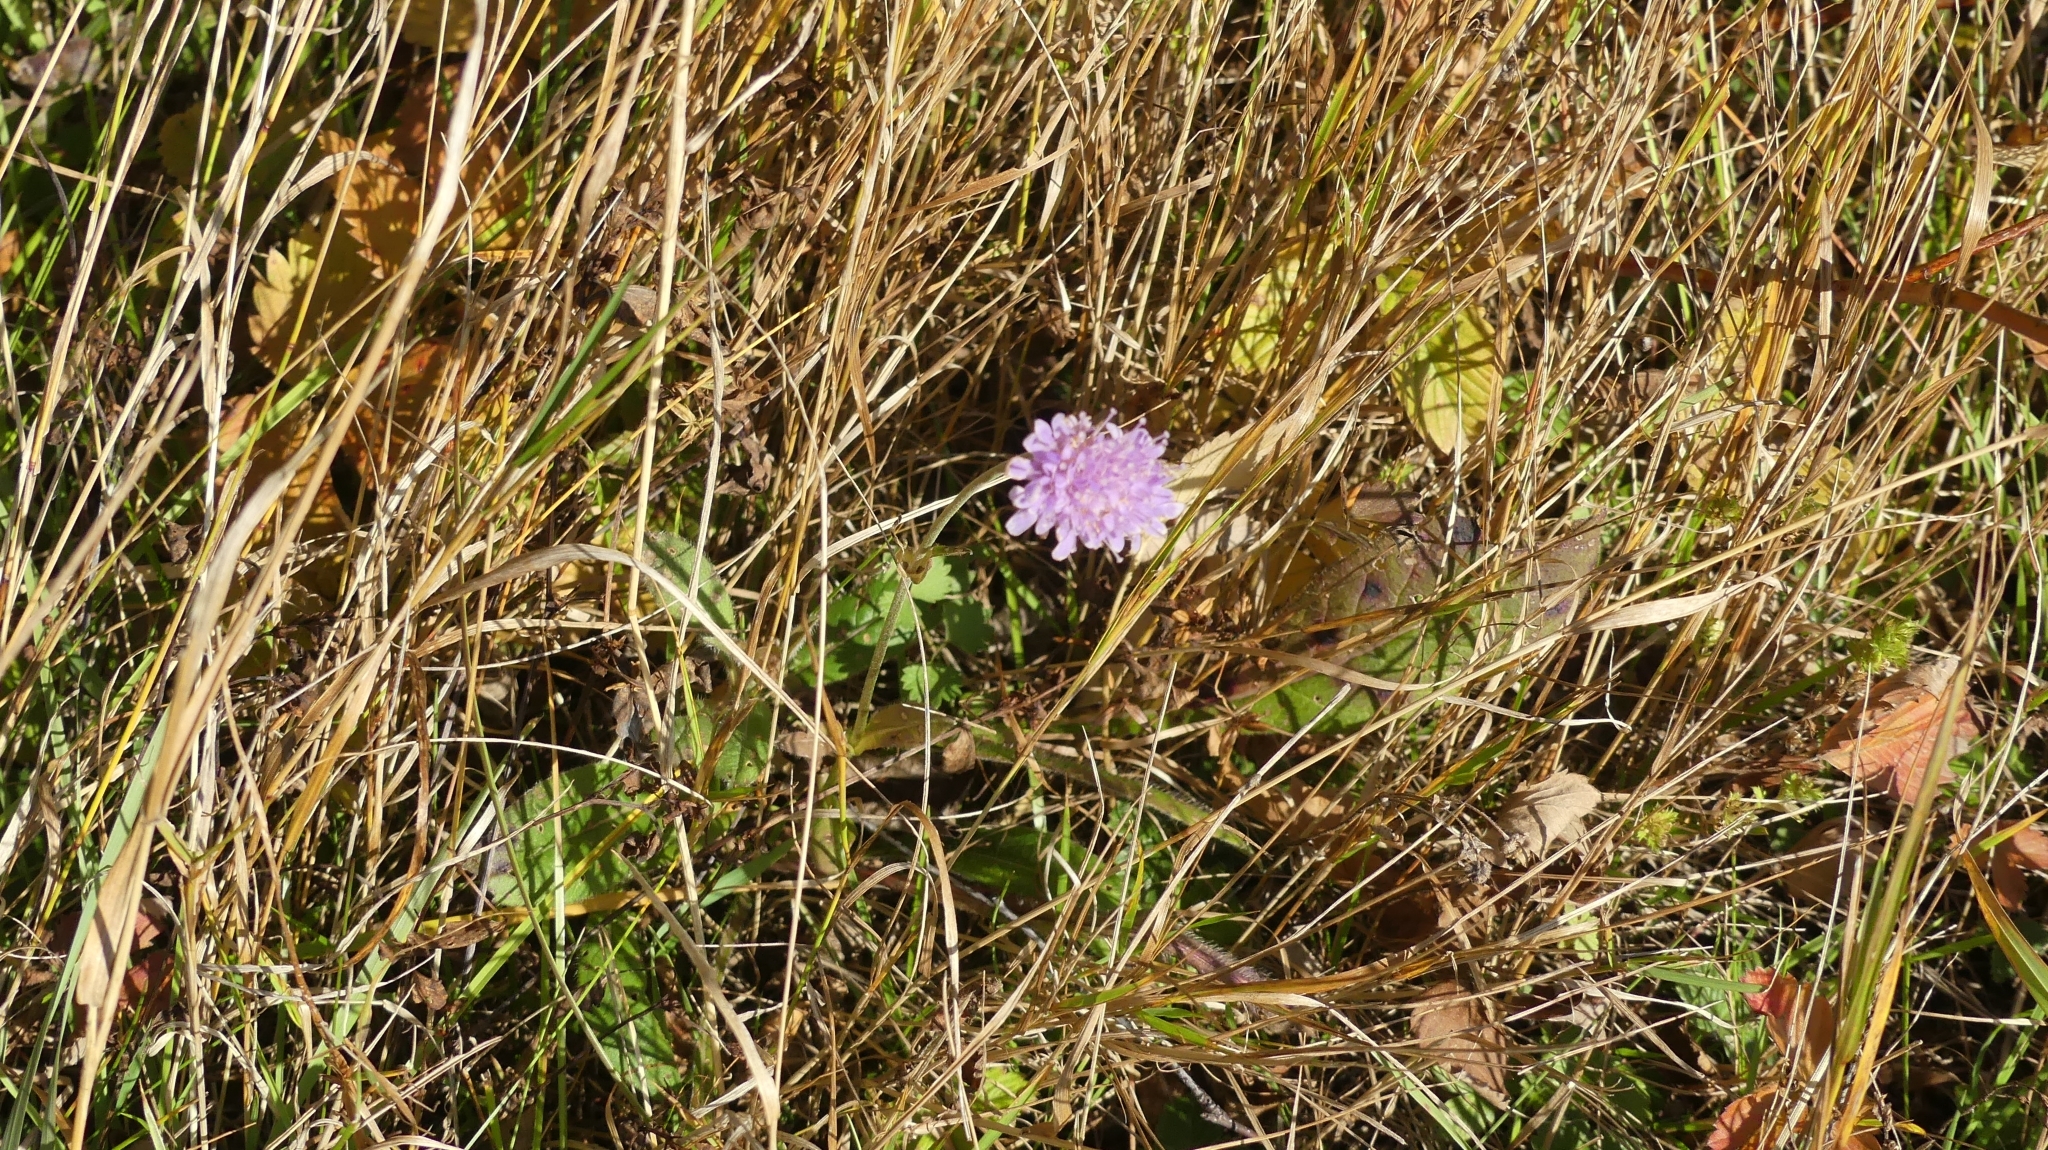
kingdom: Plantae
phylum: Tracheophyta
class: Magnoliopsida
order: Dipsacales
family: Caprifoliaceae
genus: Knautia
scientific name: Knautia arvensis
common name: Field scabiosa
